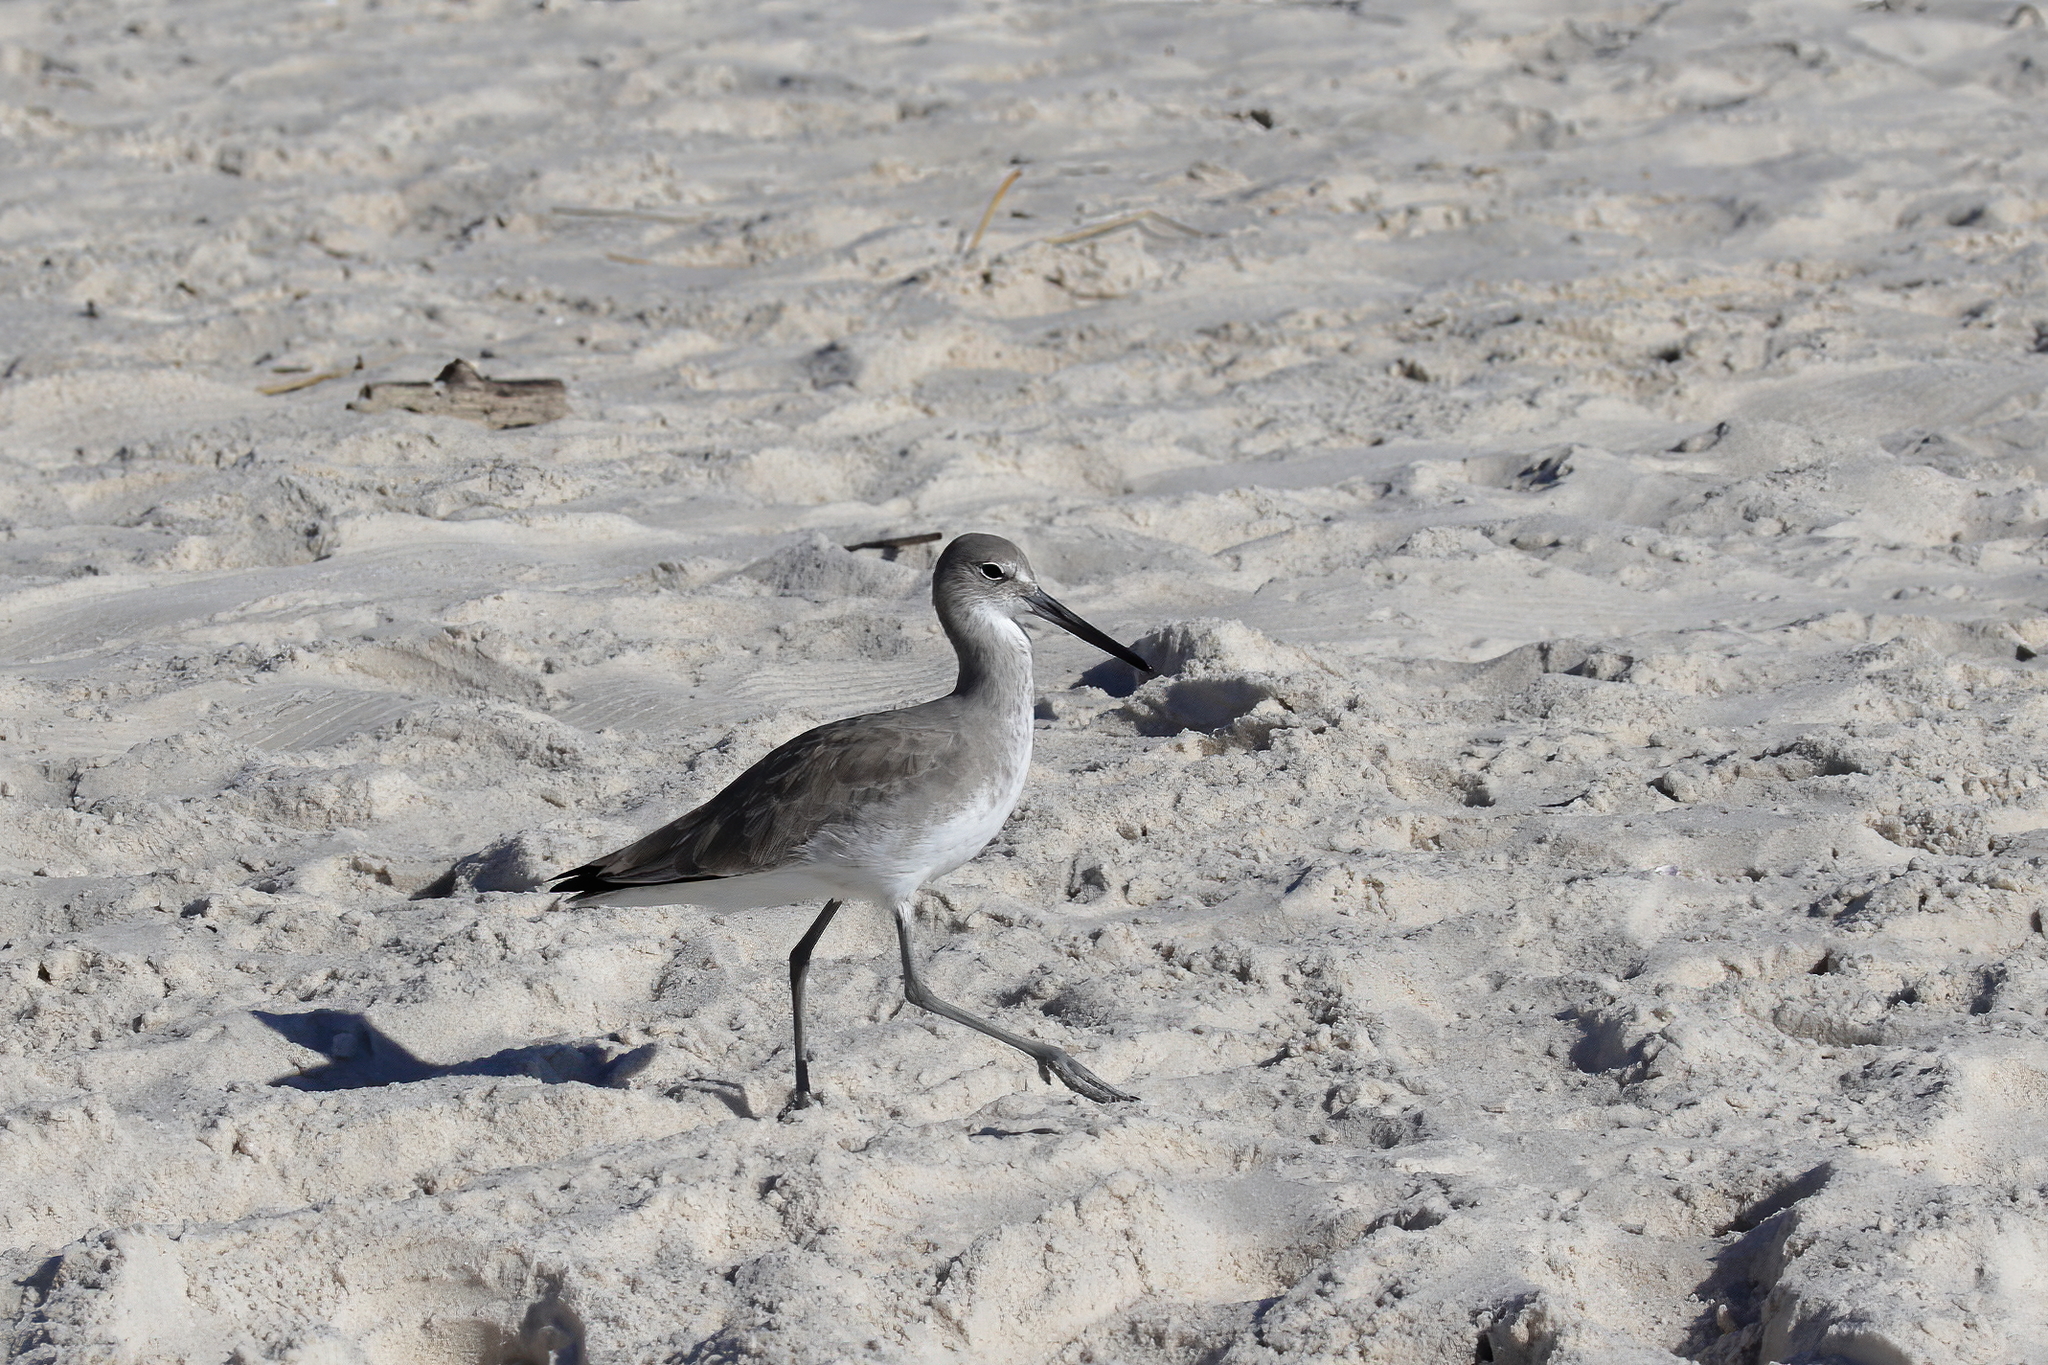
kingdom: Animalia
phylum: Chordata
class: Aves
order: Charadriiformes
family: Scolopacidae
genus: Tringa
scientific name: Tringa semipalmata
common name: Willet
